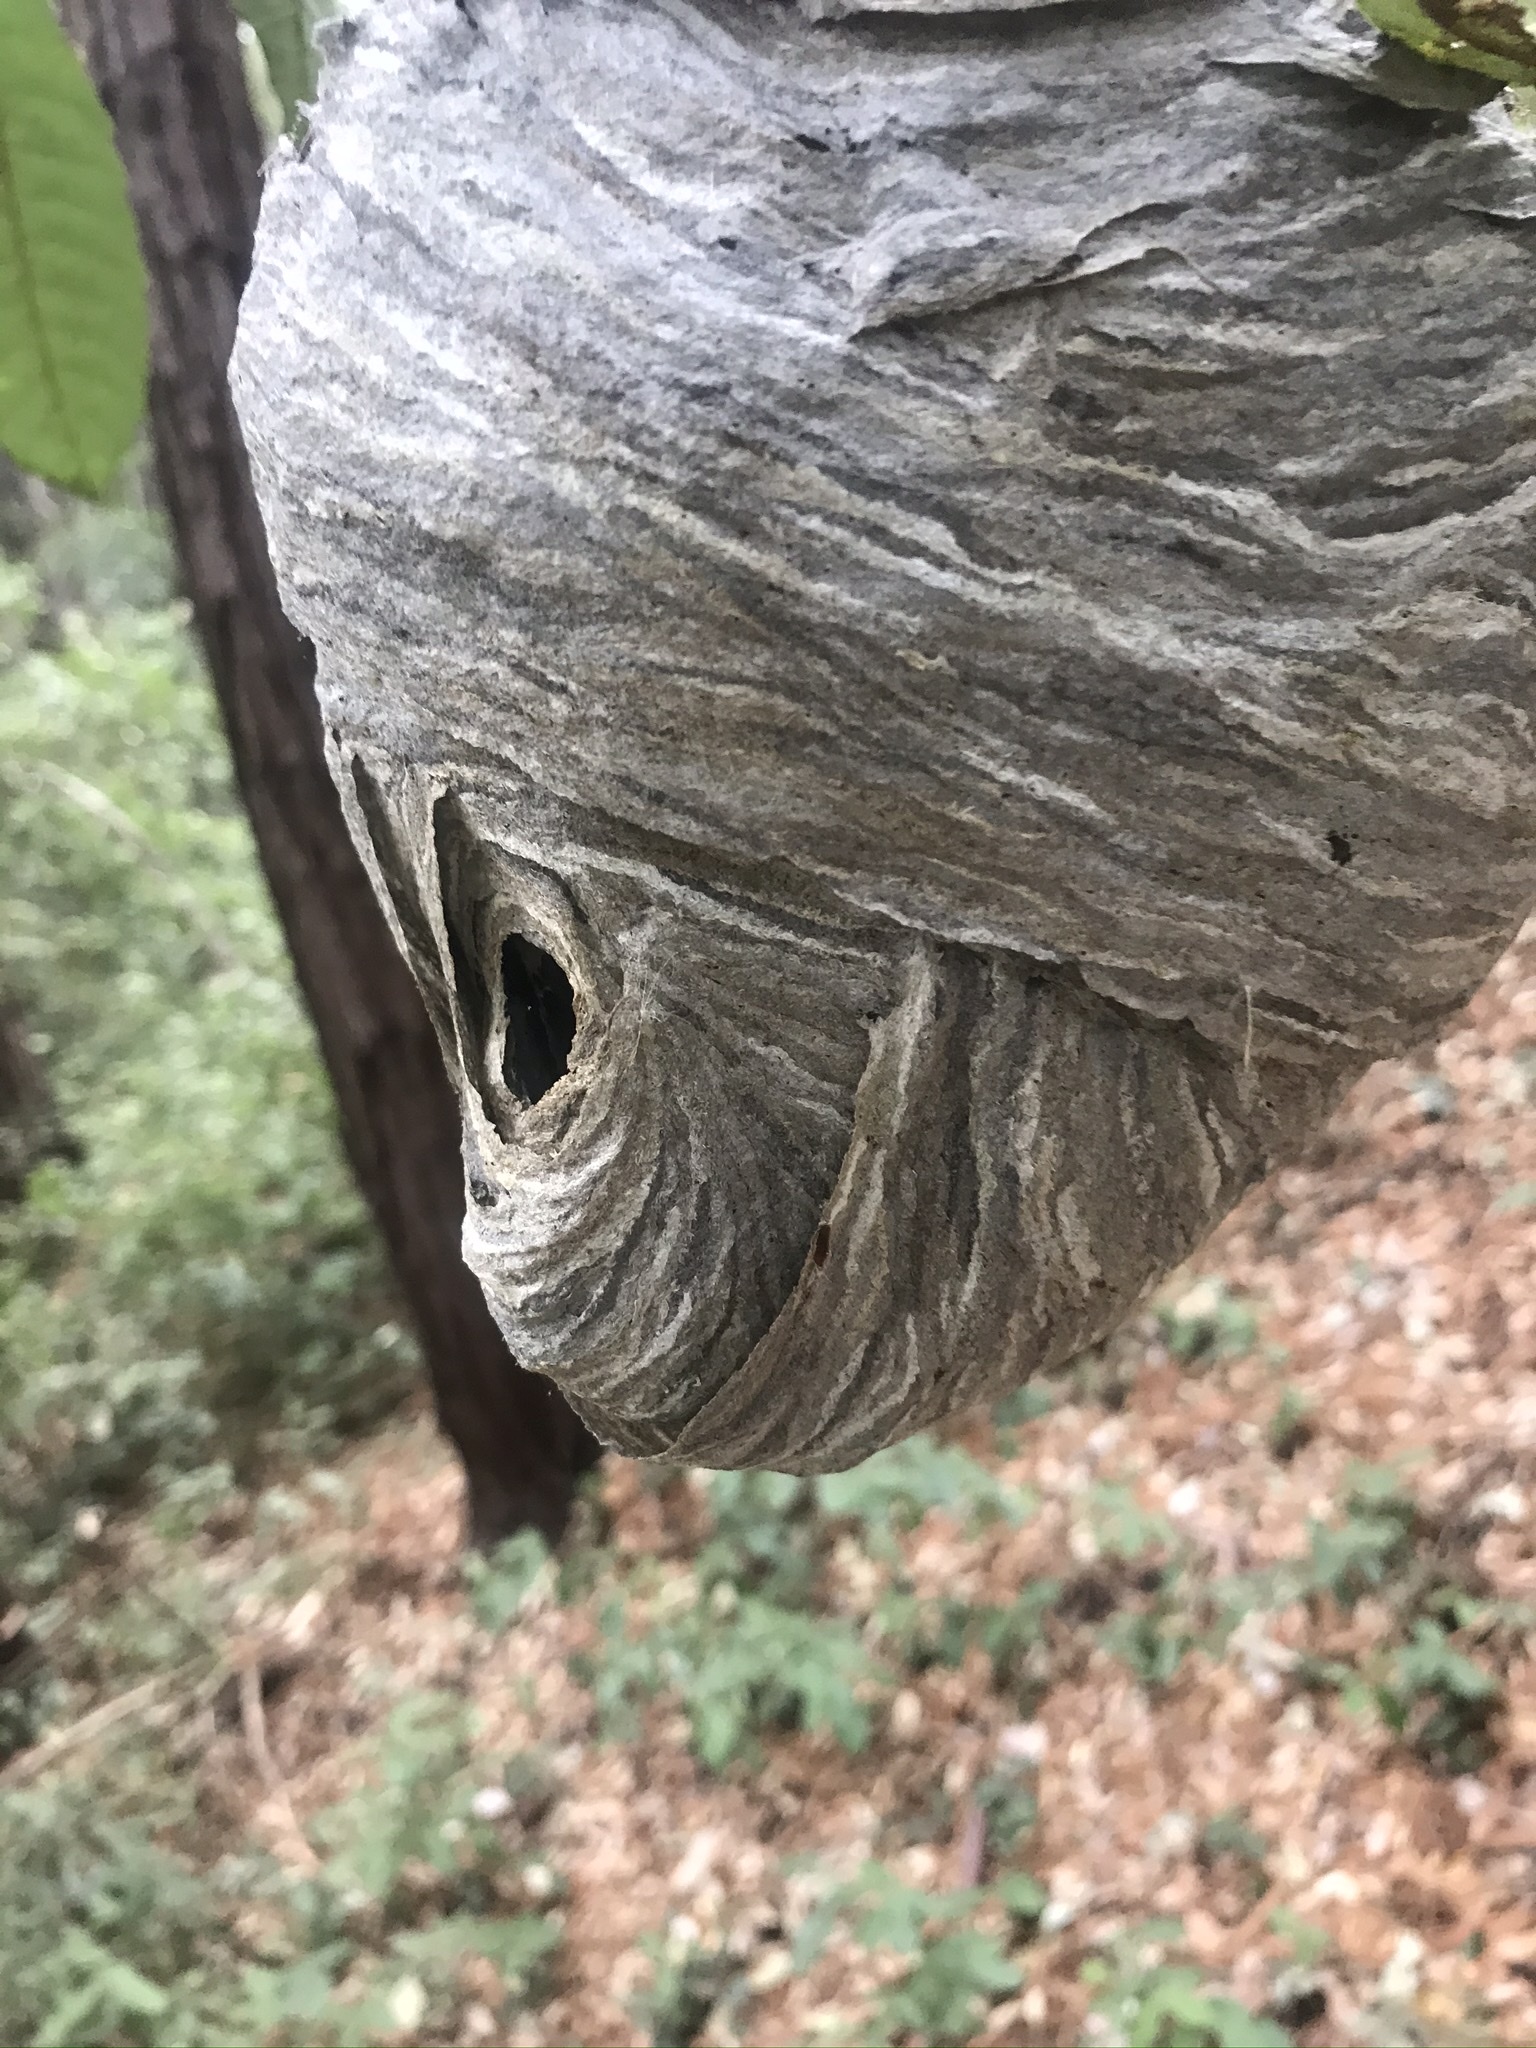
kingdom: Animalia
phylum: Arthropoda
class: Insecta
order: Hymenoptera
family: Vespidae
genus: Dolichovespula
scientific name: Dolichovespula
